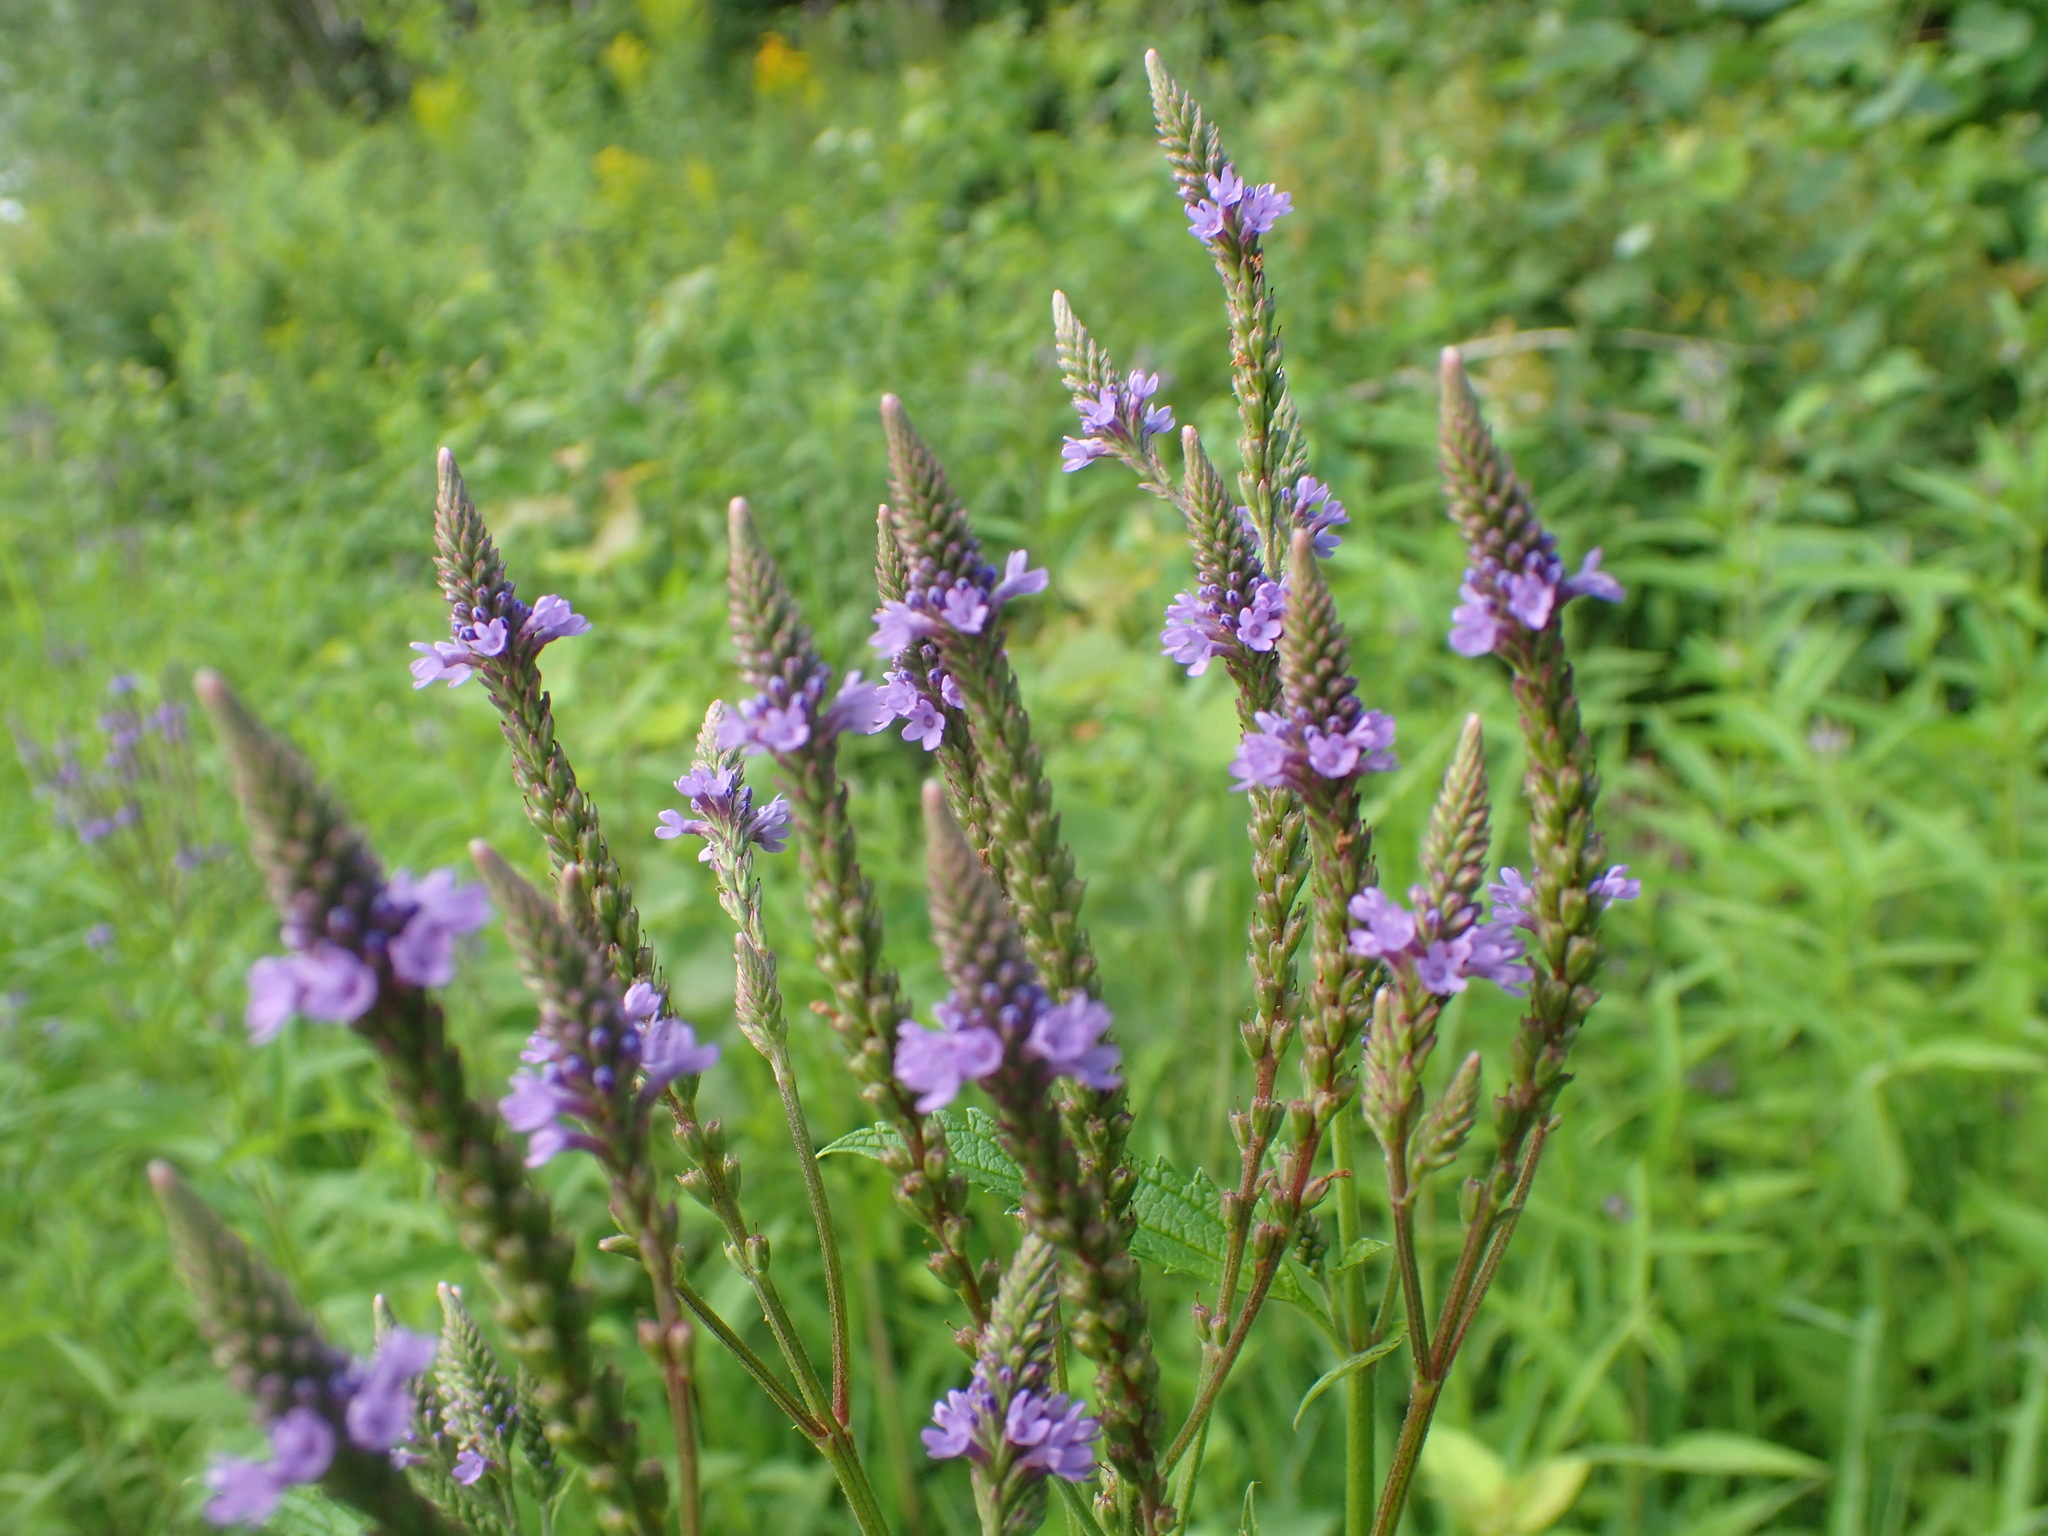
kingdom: Plantae
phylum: Tracheophyta
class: Magnoliopsida
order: Lamiales
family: Verbenaceae
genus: Verbena
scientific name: Verbena hastata
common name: American blue vervain
